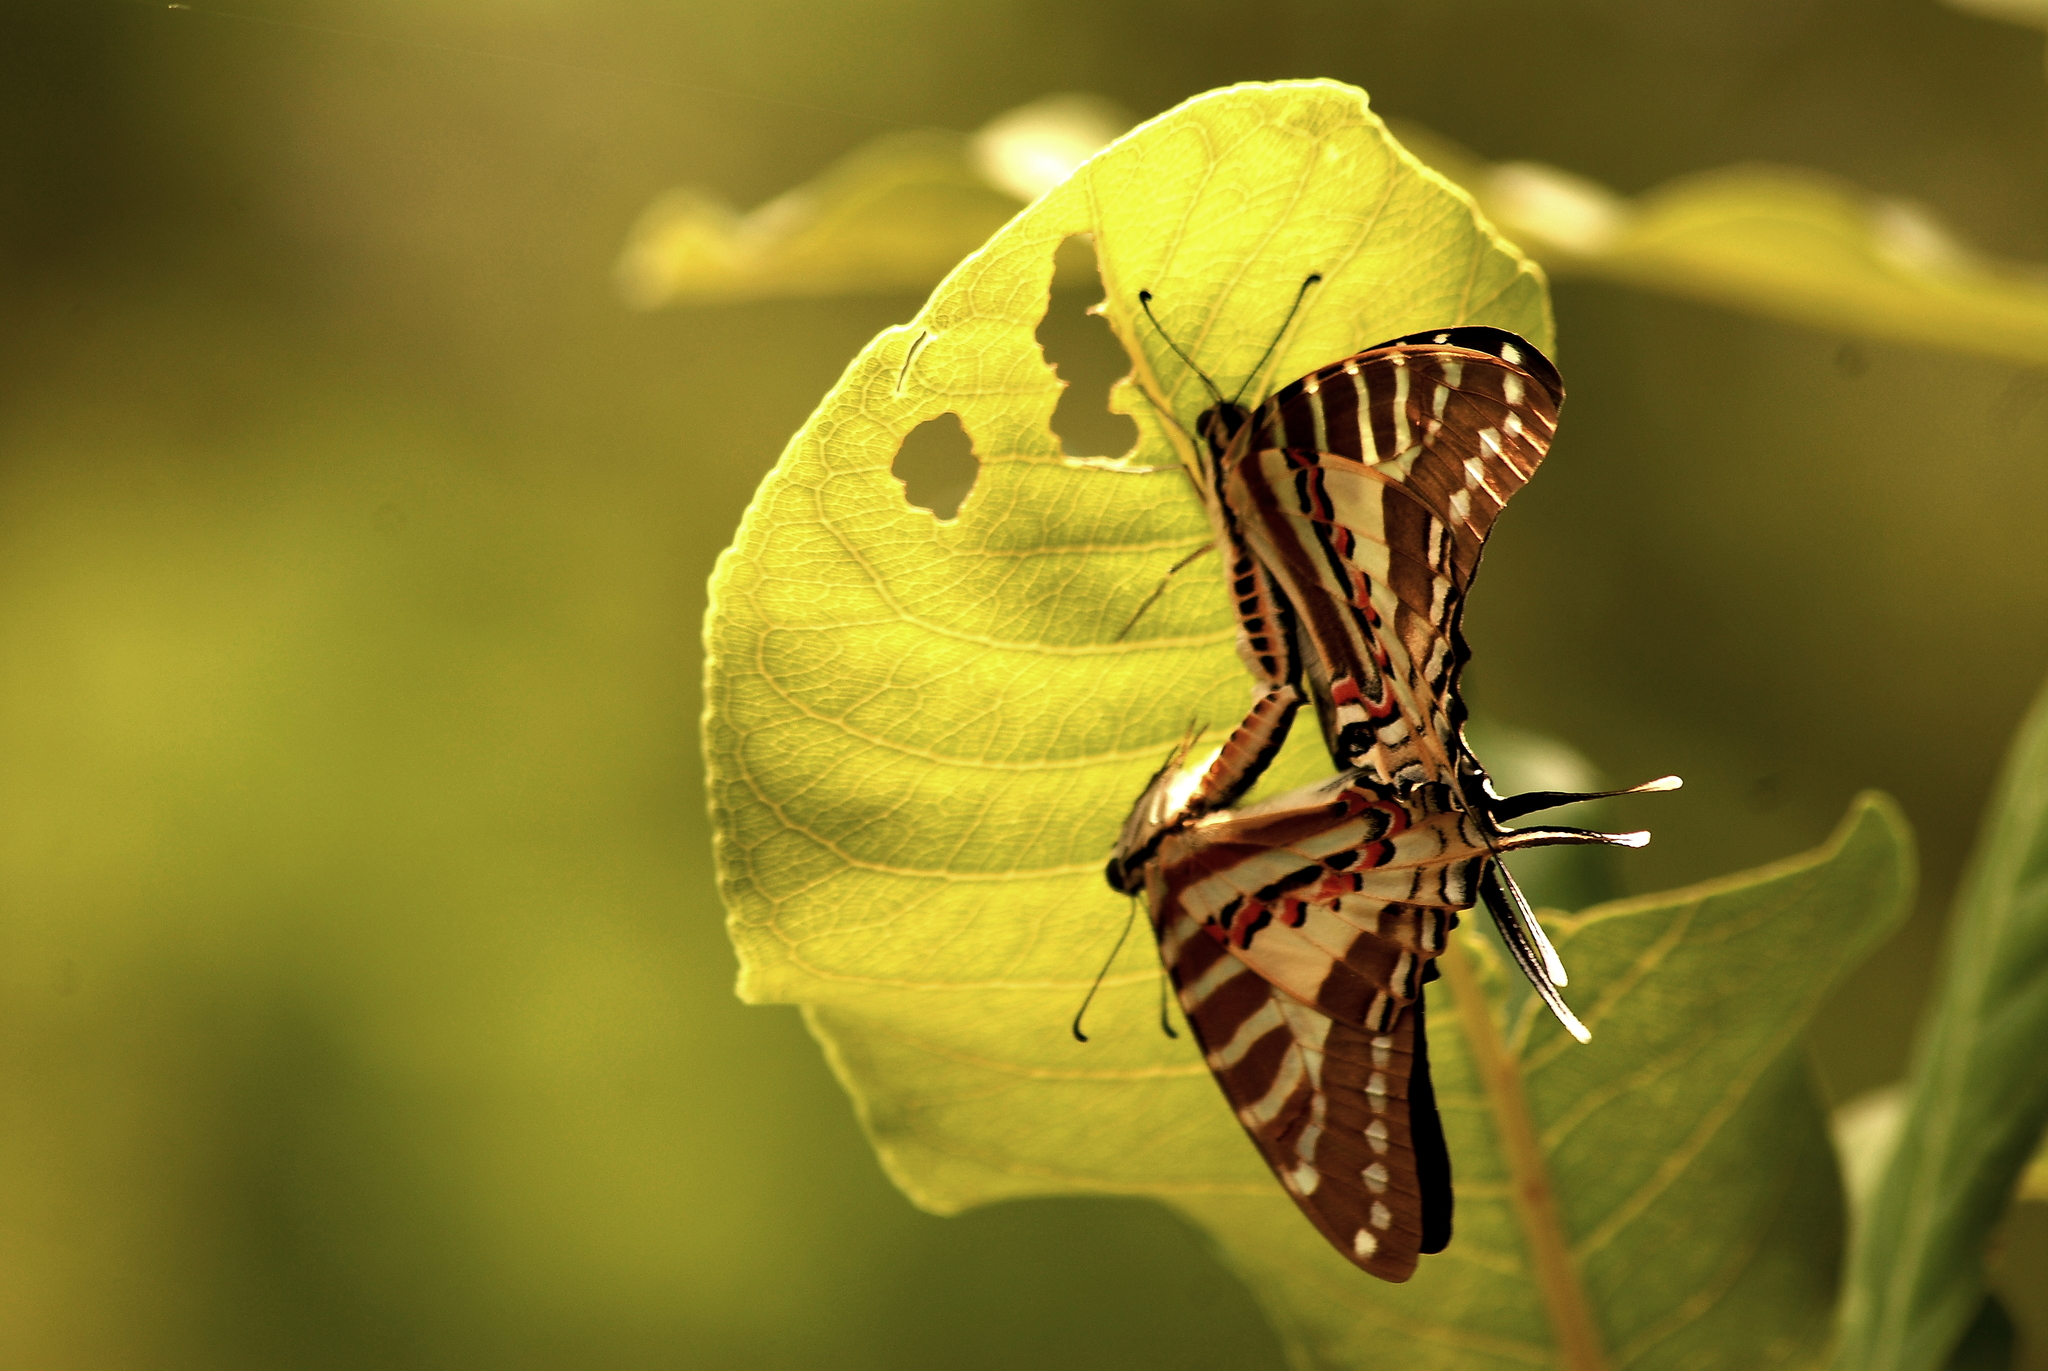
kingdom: Animalia
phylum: Arthropoda
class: Insecta
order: Lepidoptera
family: Papilionidae
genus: Graphium
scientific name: Graphium nomius
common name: Spot swordtail
